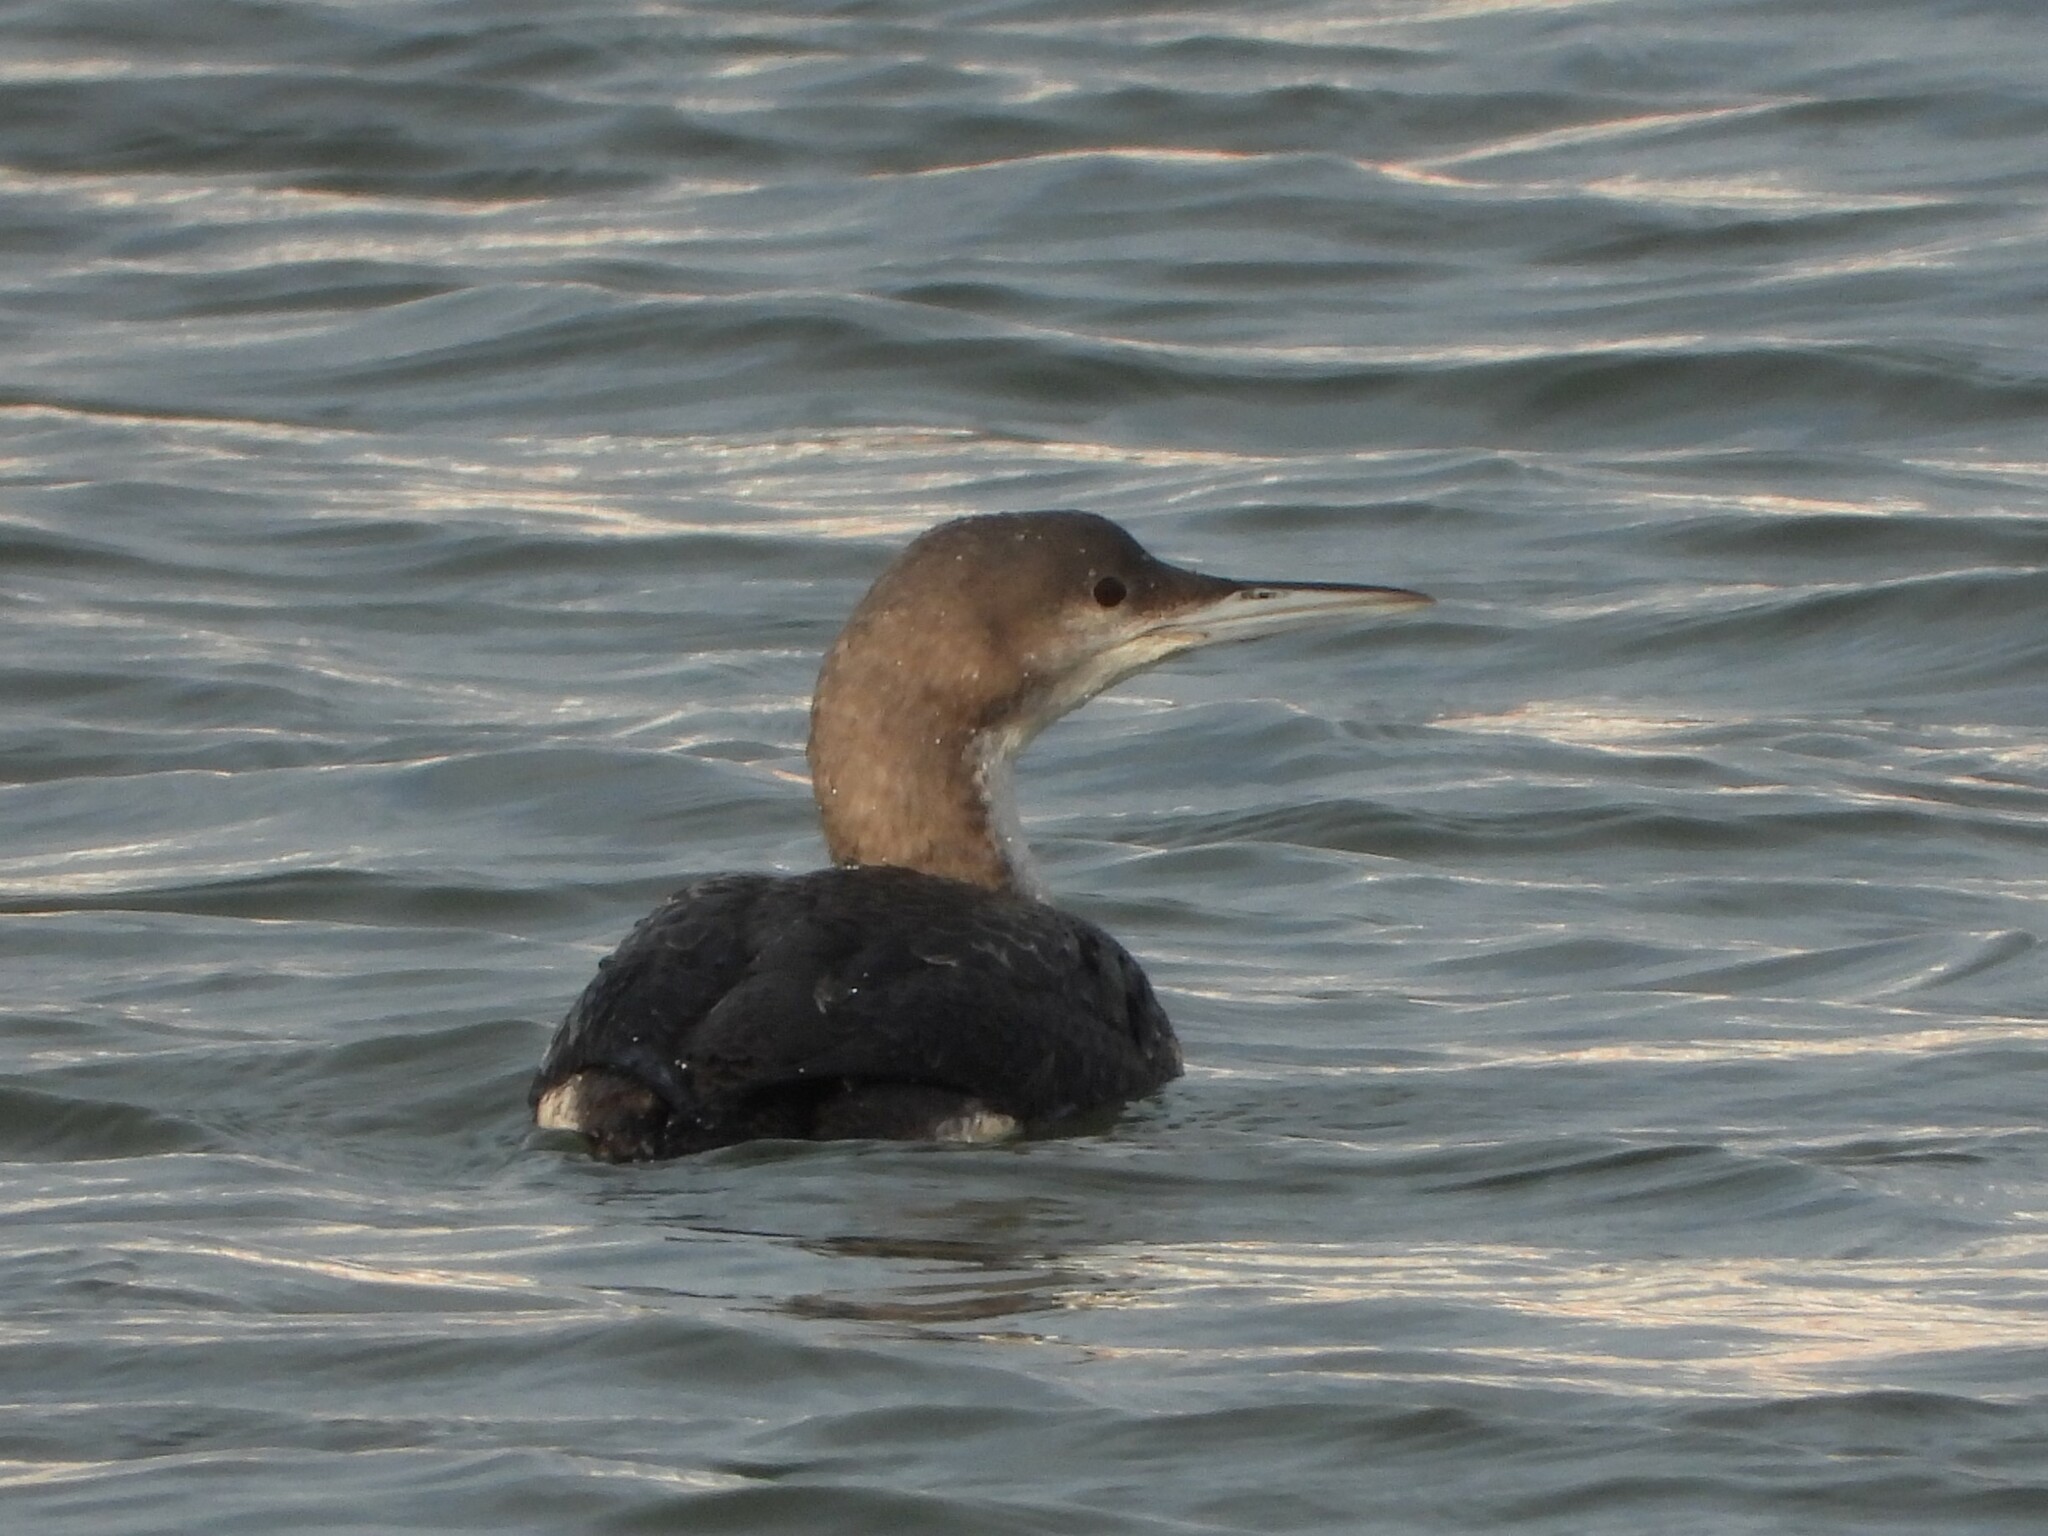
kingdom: Animalia
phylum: Chordata
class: Aves
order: Gaviiformes
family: Gaviidae
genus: Gavia
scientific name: Gavia arctica
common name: Black-throated loon
